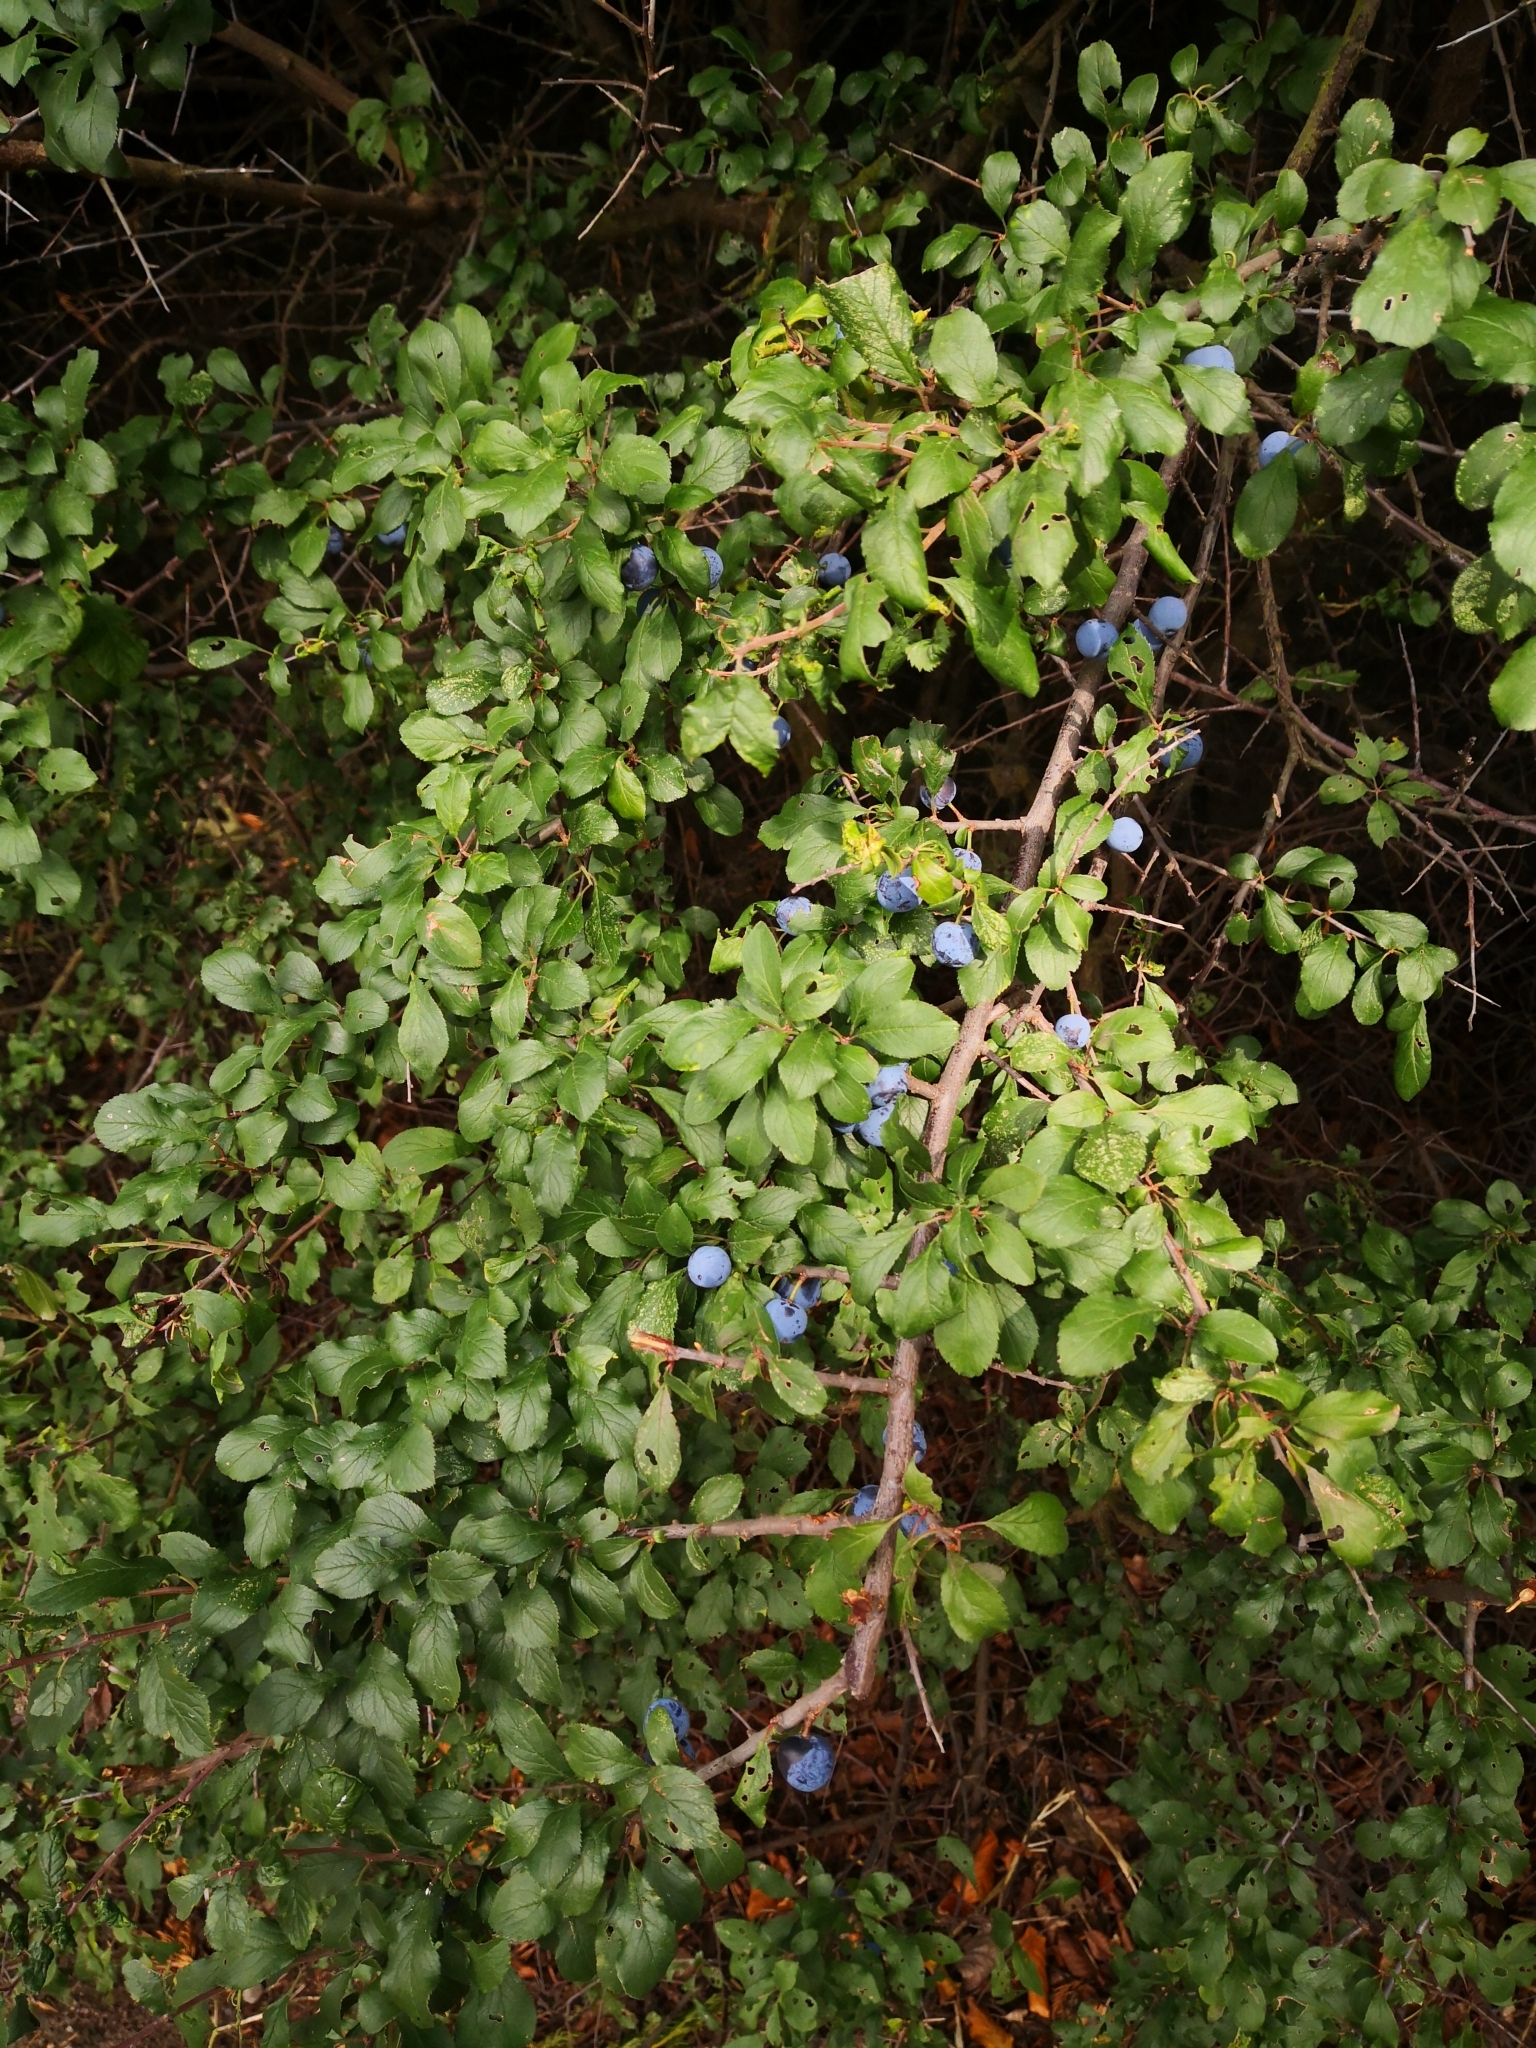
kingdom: Plantae
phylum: Tracheophyta
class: Magnoliopsida
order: Rosales
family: Rosaceae
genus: Prunus
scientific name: Prunus spinosa
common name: Blackthorn
